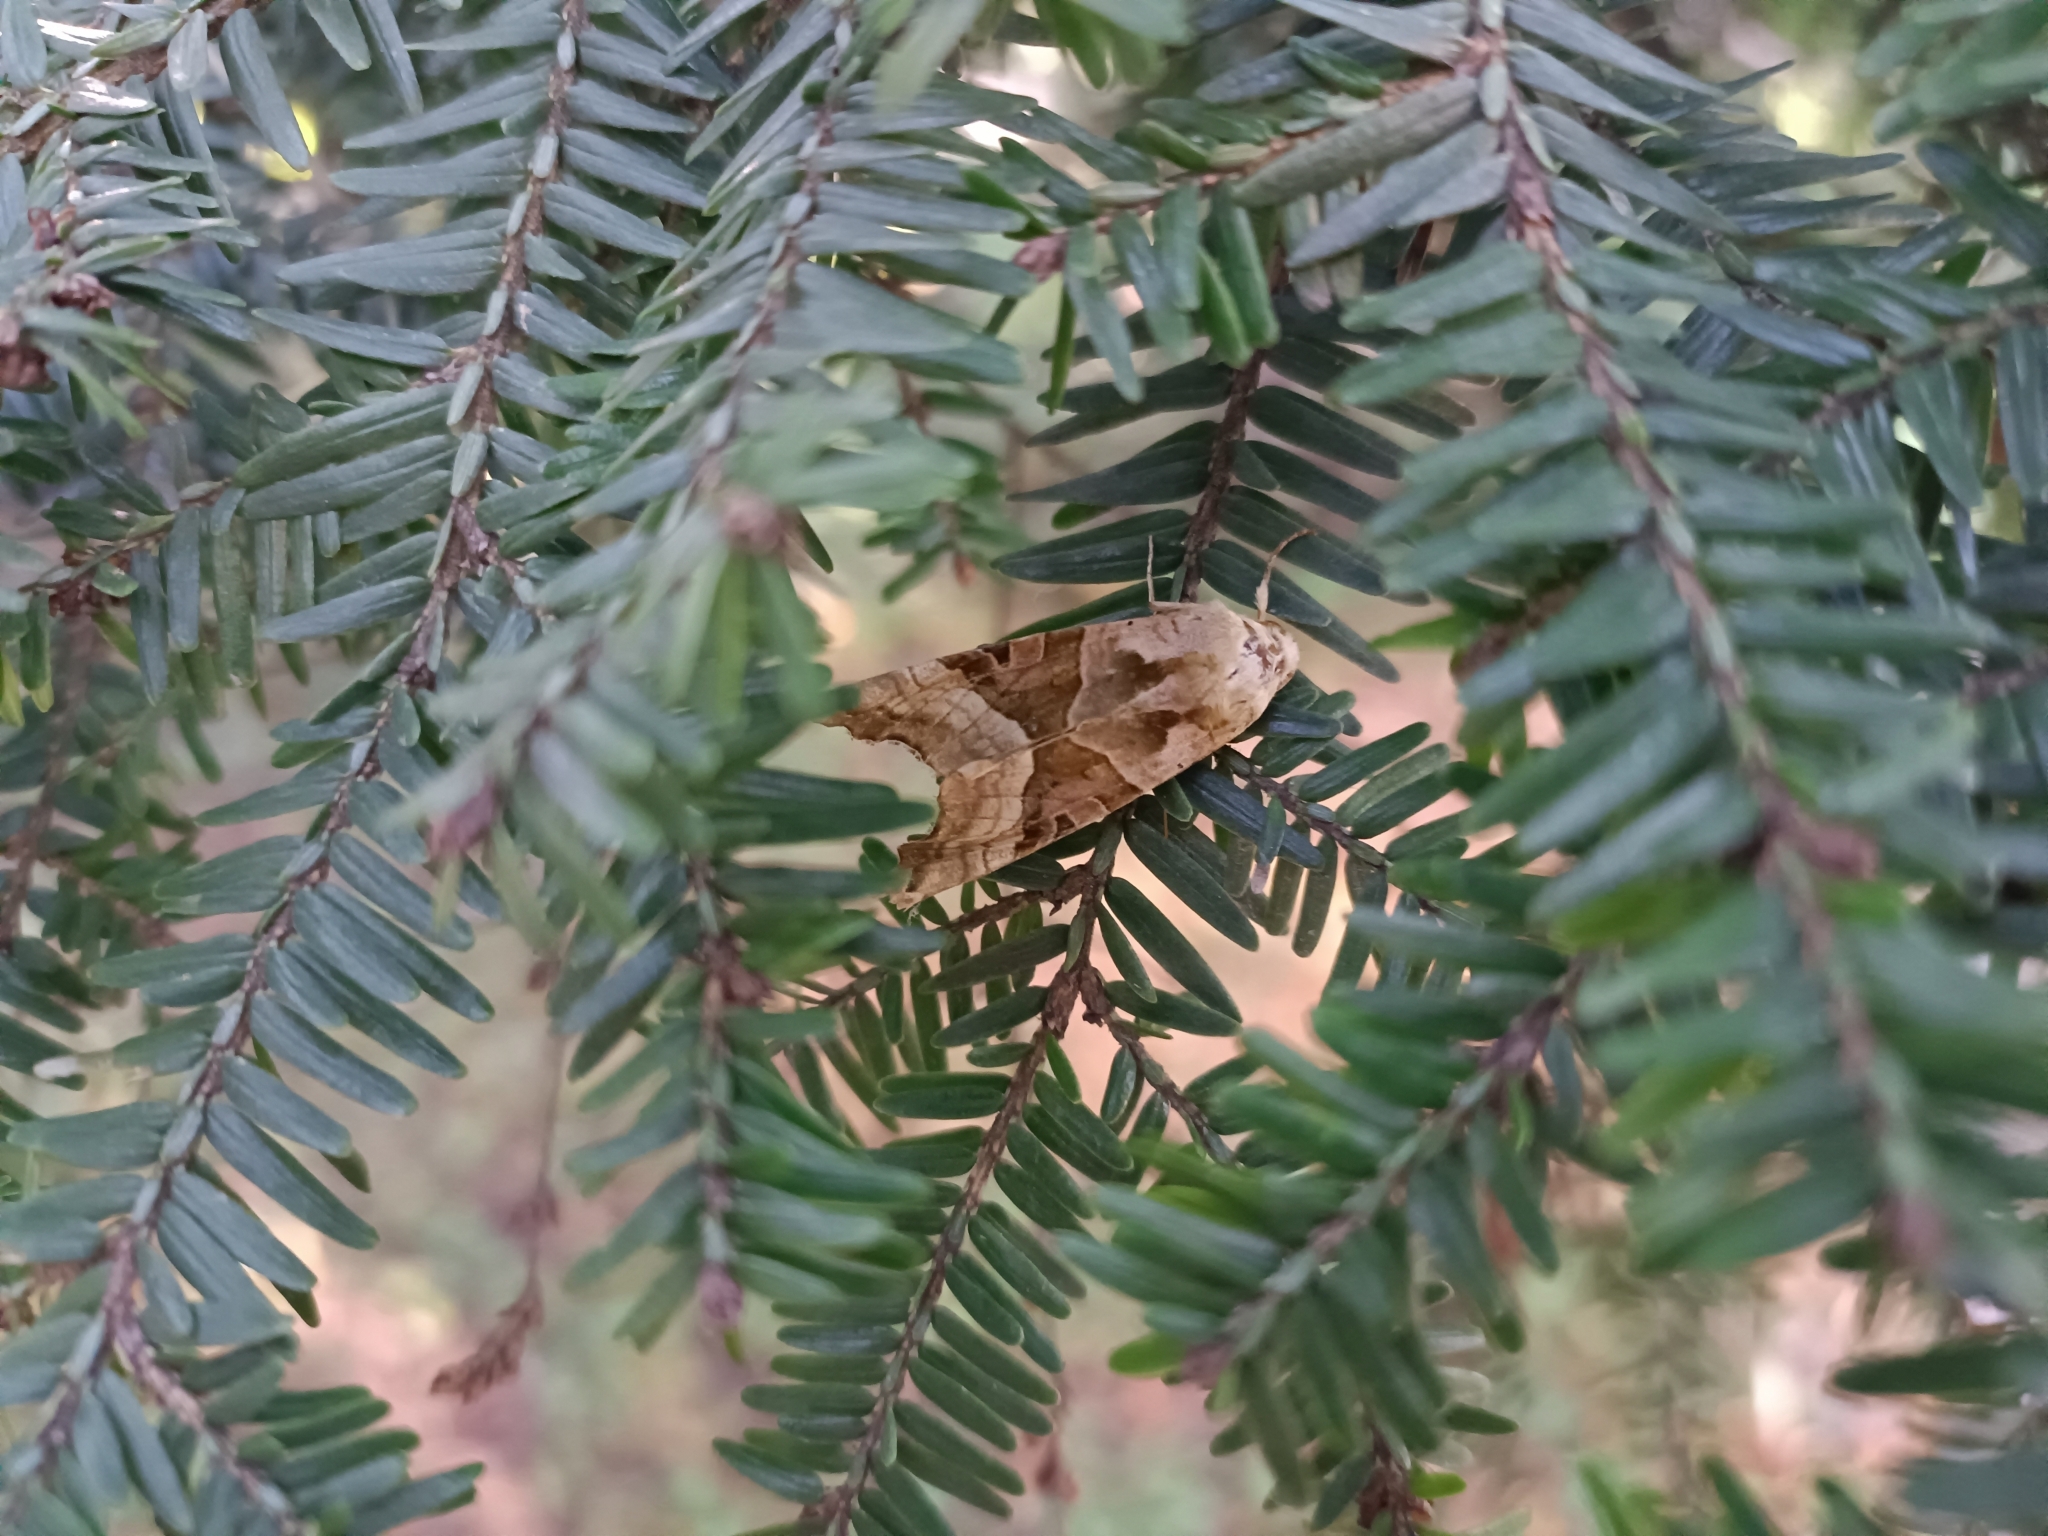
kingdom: Animalia
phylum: Arthropoda
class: Insecta
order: Lepidoptera
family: Noctuidae
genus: Phlogophora
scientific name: Phlogophora meticulosa
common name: Angle shades
